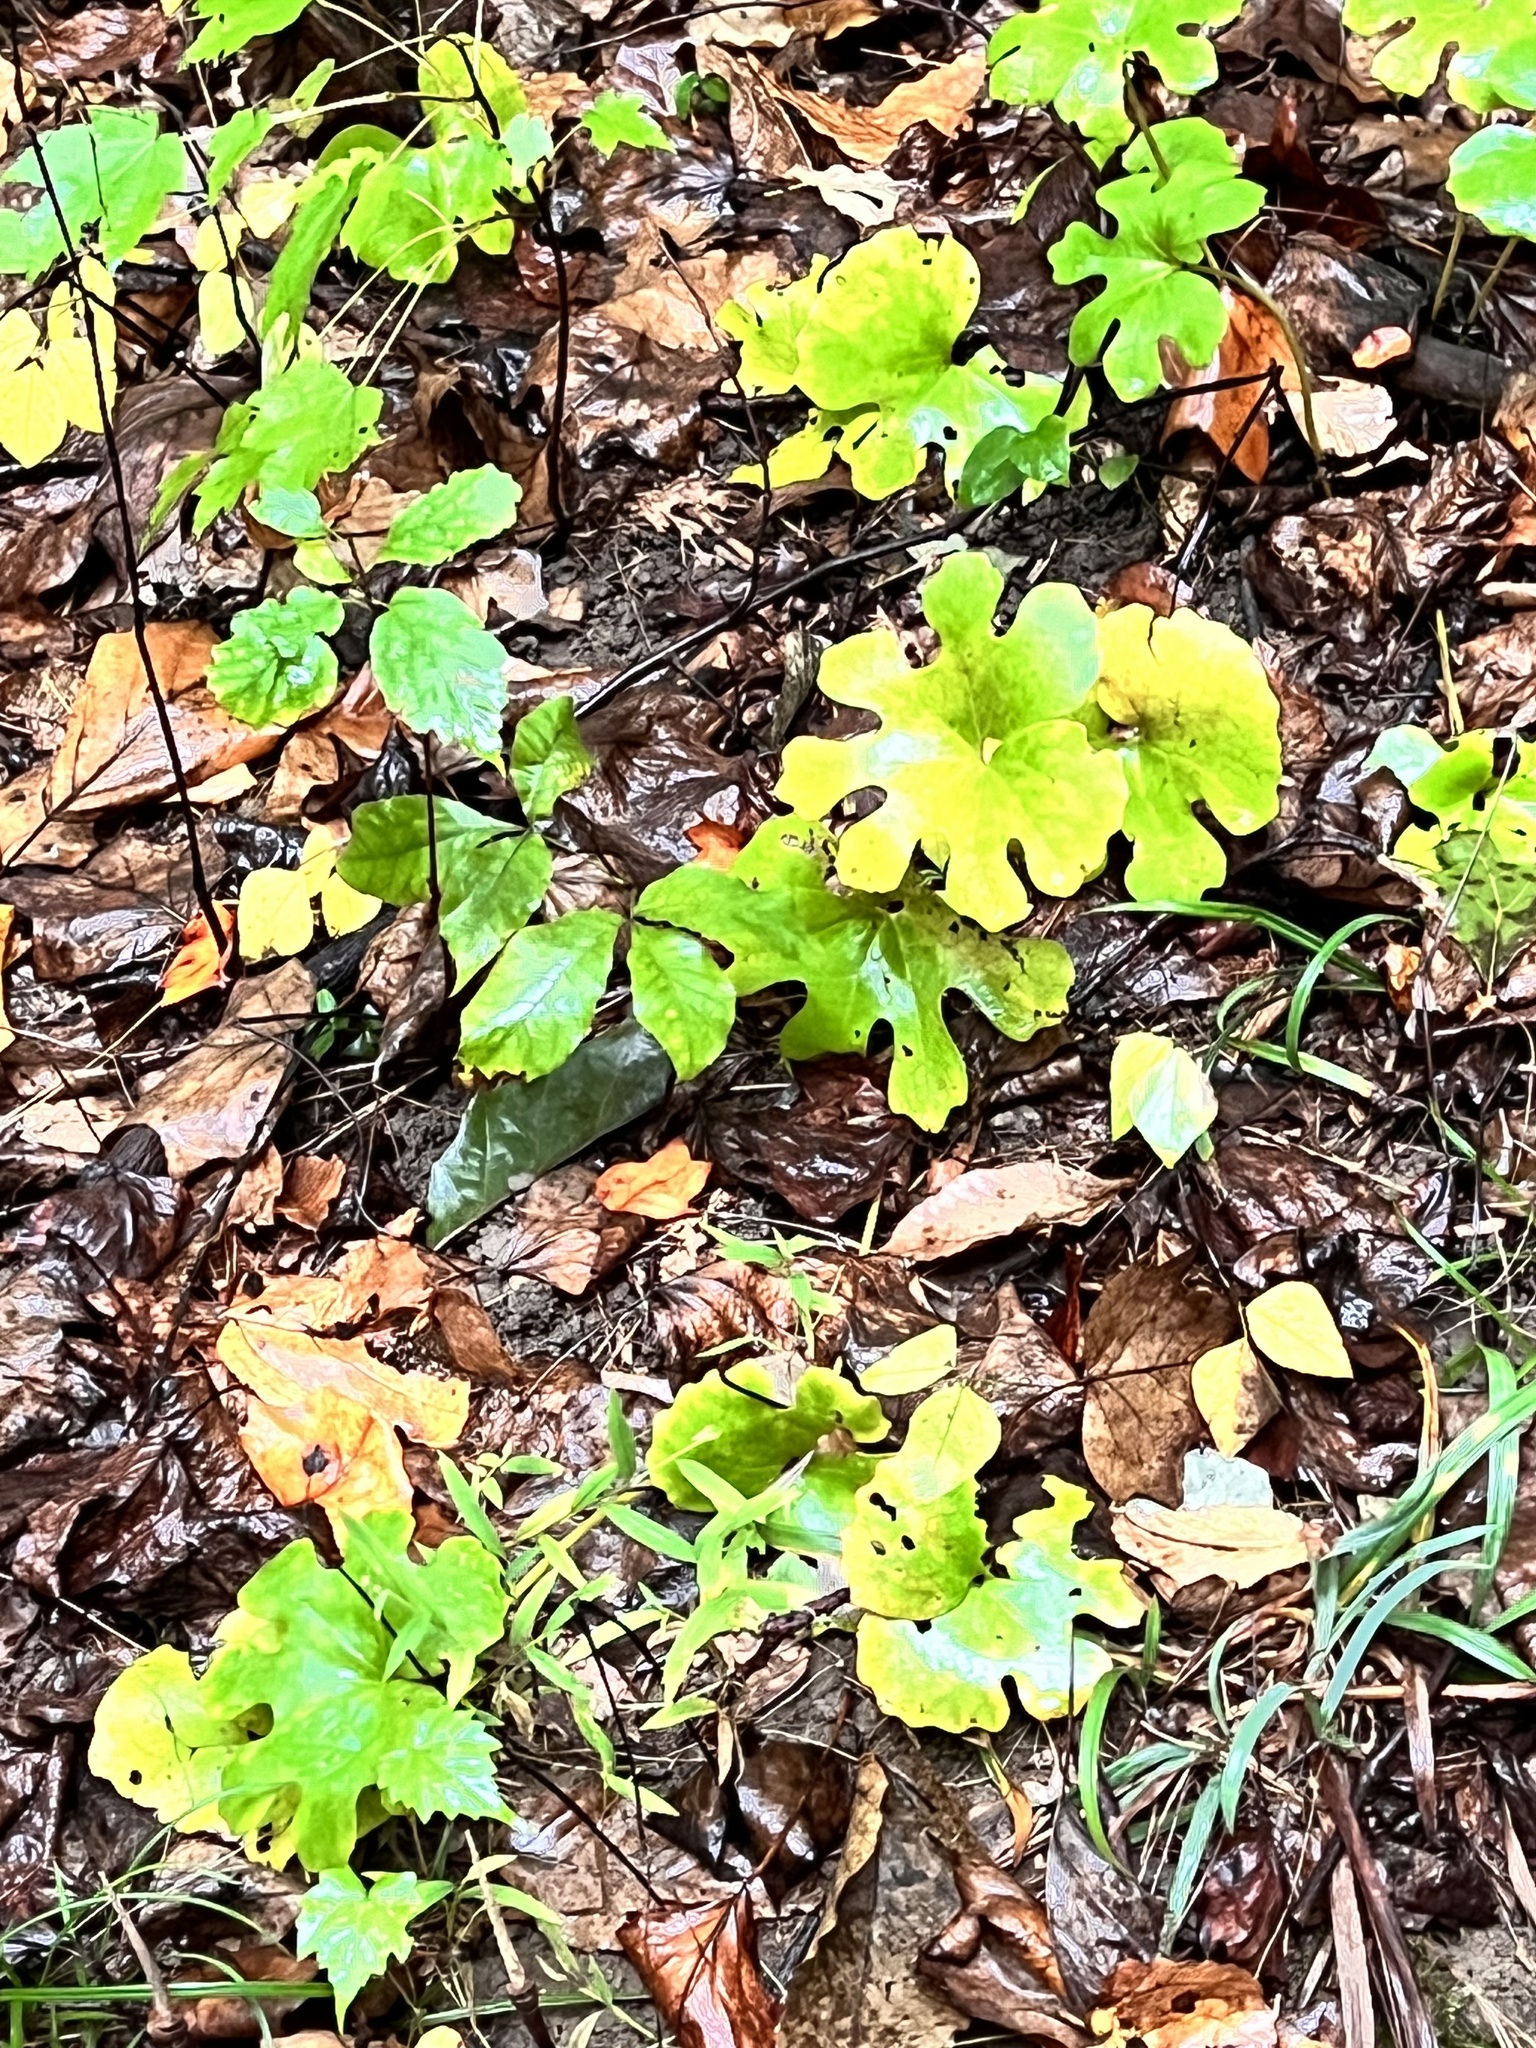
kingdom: Plantae
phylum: Tracheophyta
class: Magnoliopsida
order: Ranunculales
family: Papaveraceae
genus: Sanguinaria
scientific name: Sanguinaria canadensis
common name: Bloodroot
